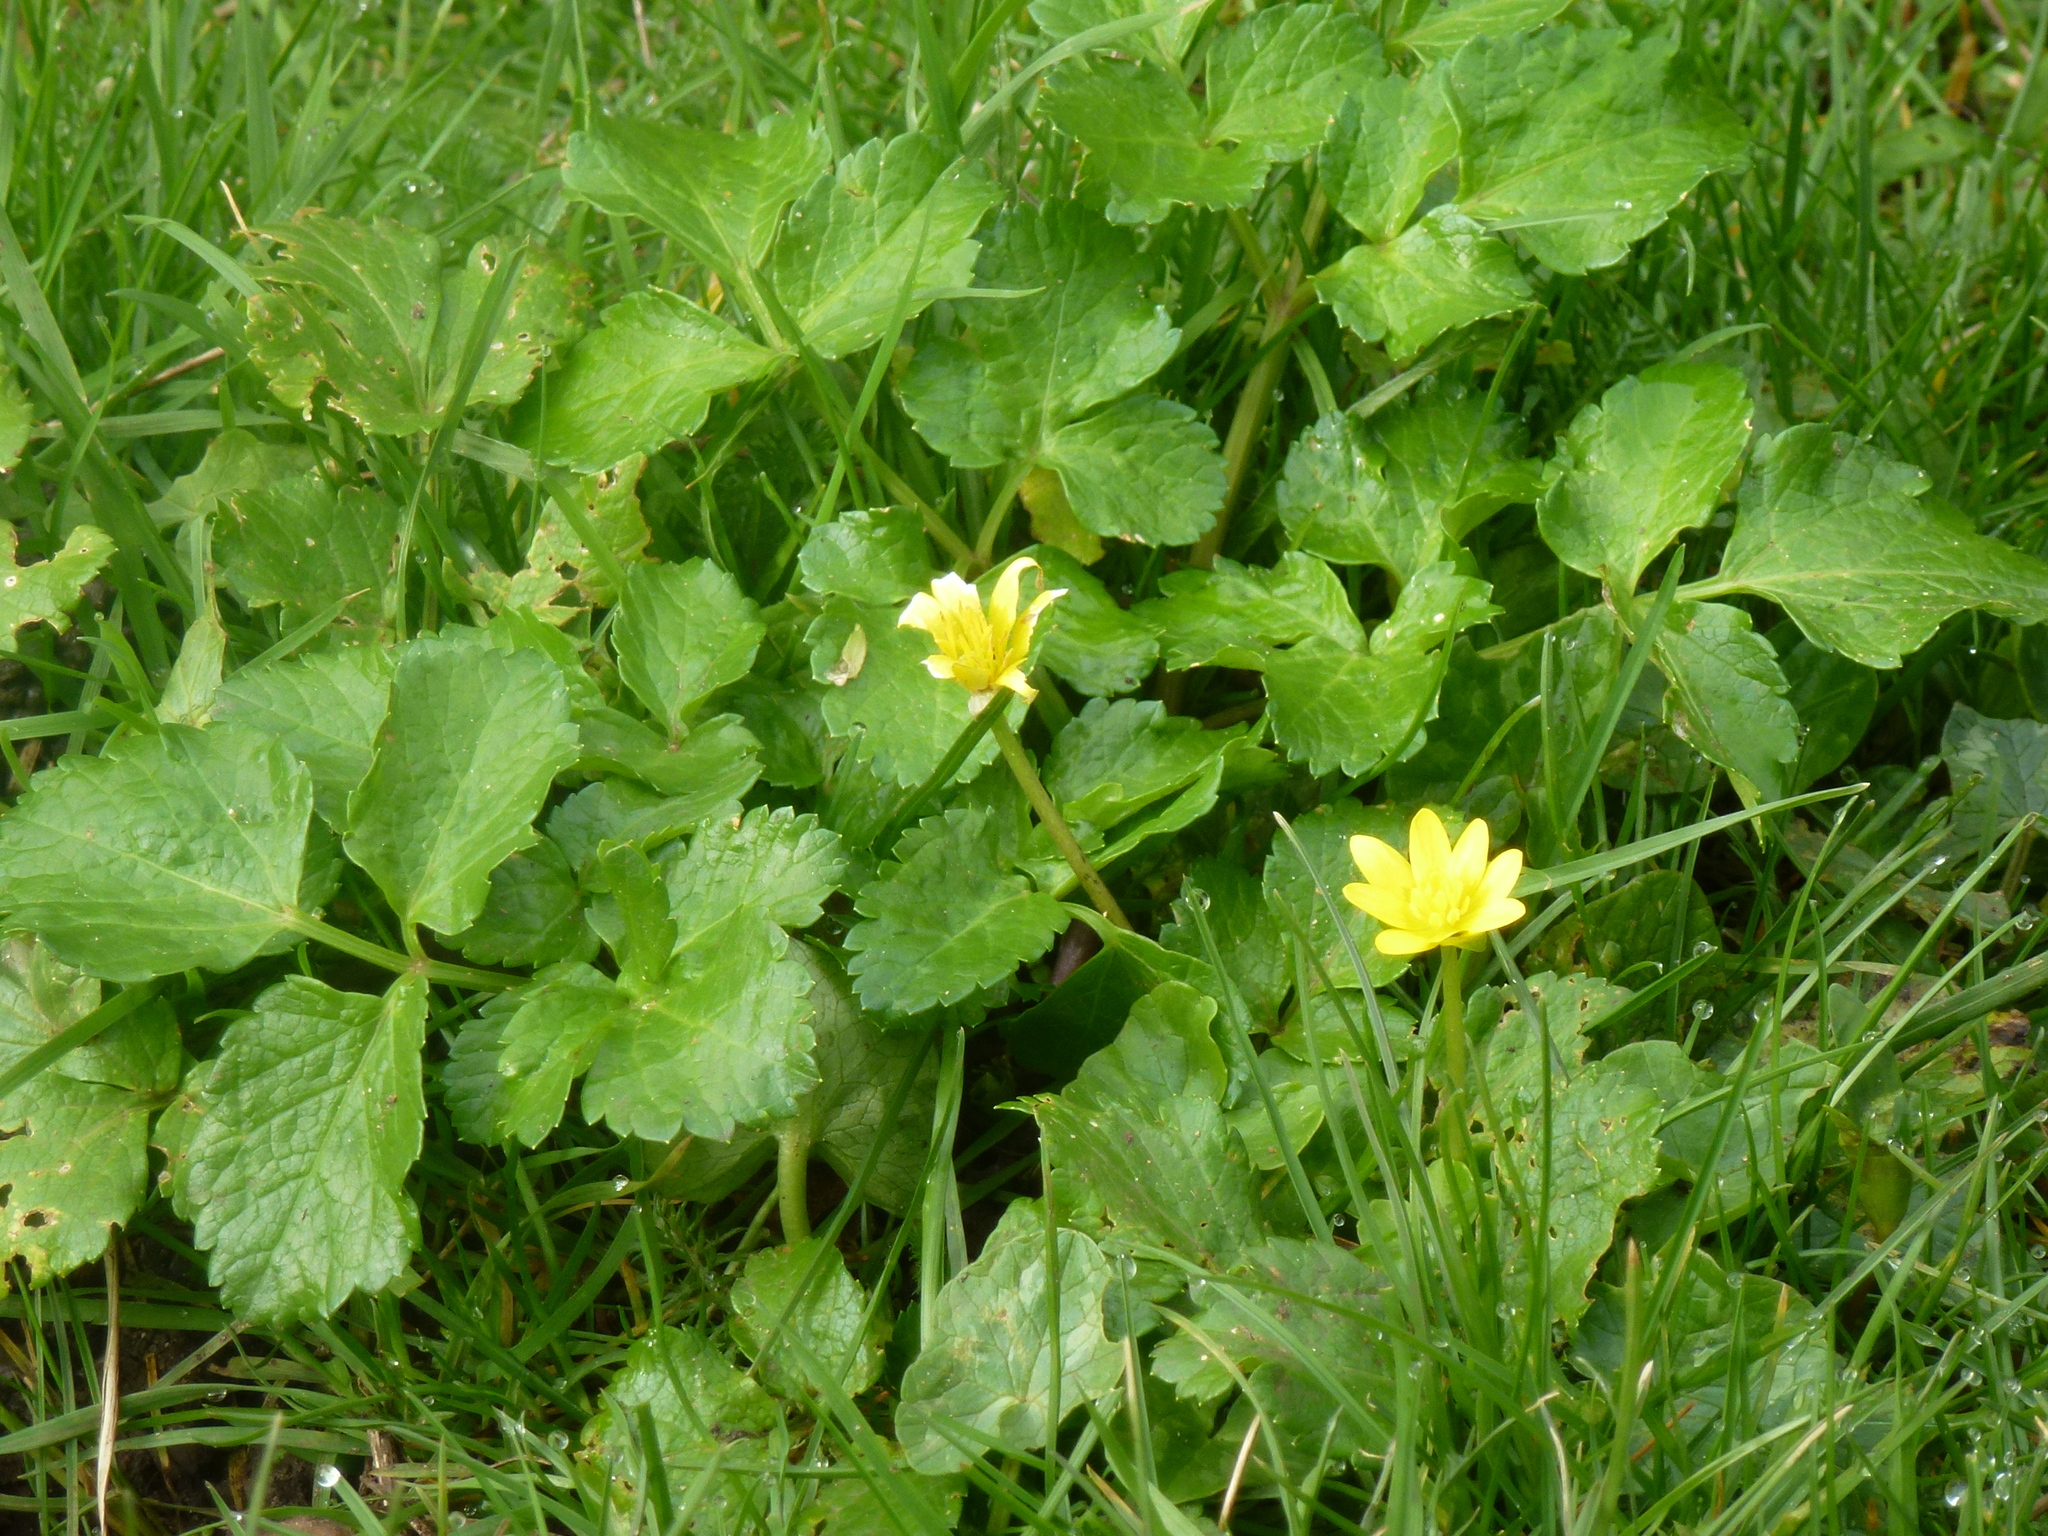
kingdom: Plantae
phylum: Tracheophyta
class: Magnoliopsida
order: Ranunculales
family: Ranunculaceae
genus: Ficaria
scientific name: Ficaria verna
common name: Lesser celandine
